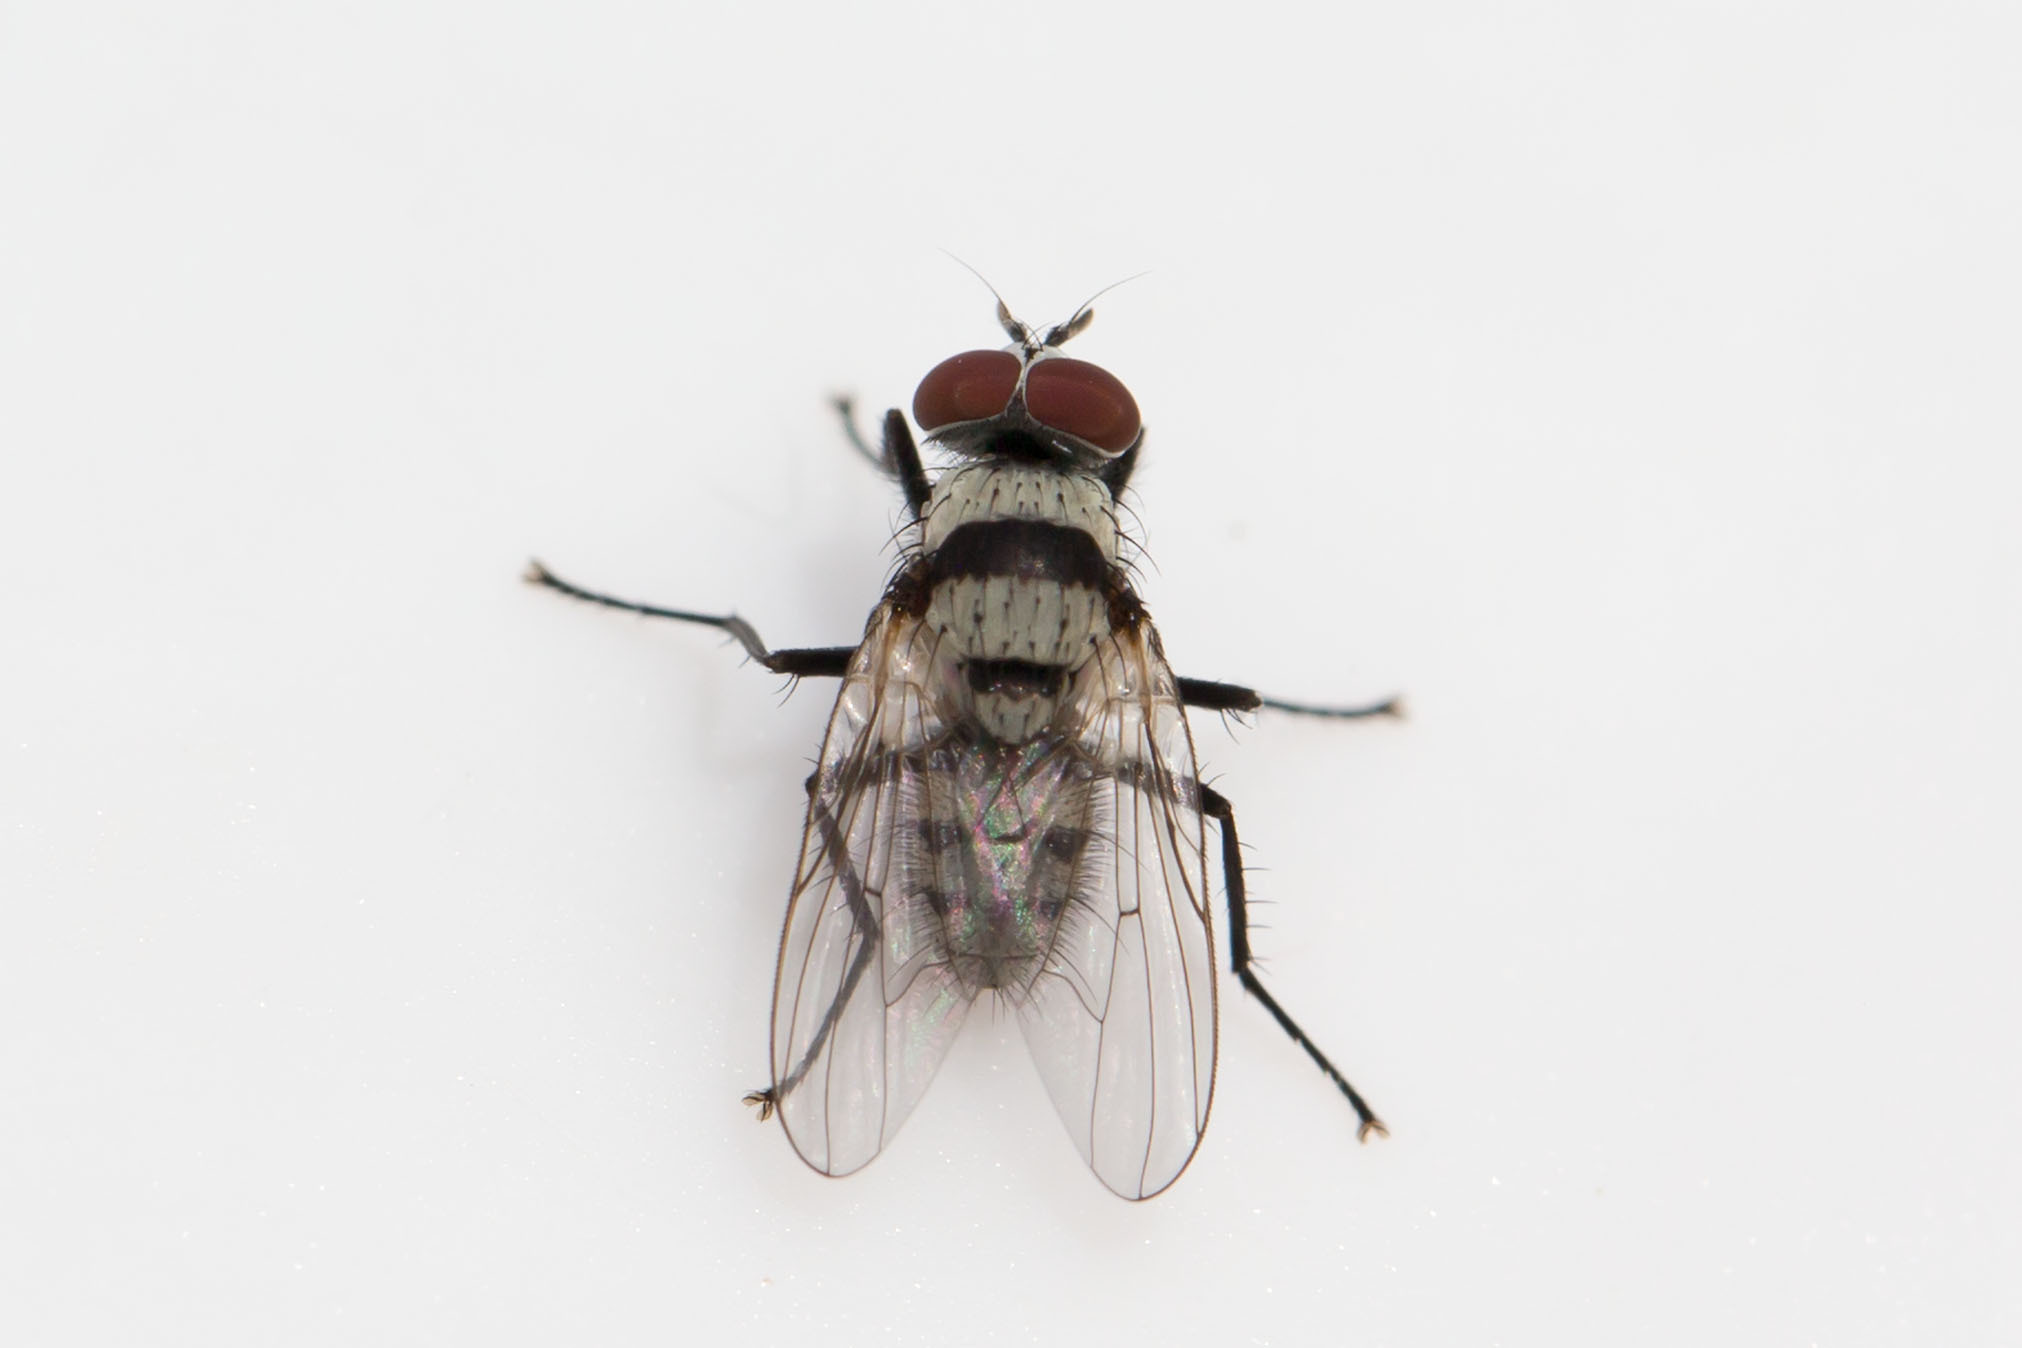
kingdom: Animalia
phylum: Arthropoda
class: Insecta
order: Diptera
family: Anthomyiidae
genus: Anthomyia
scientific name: Anthomyia illocata
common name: Fly
